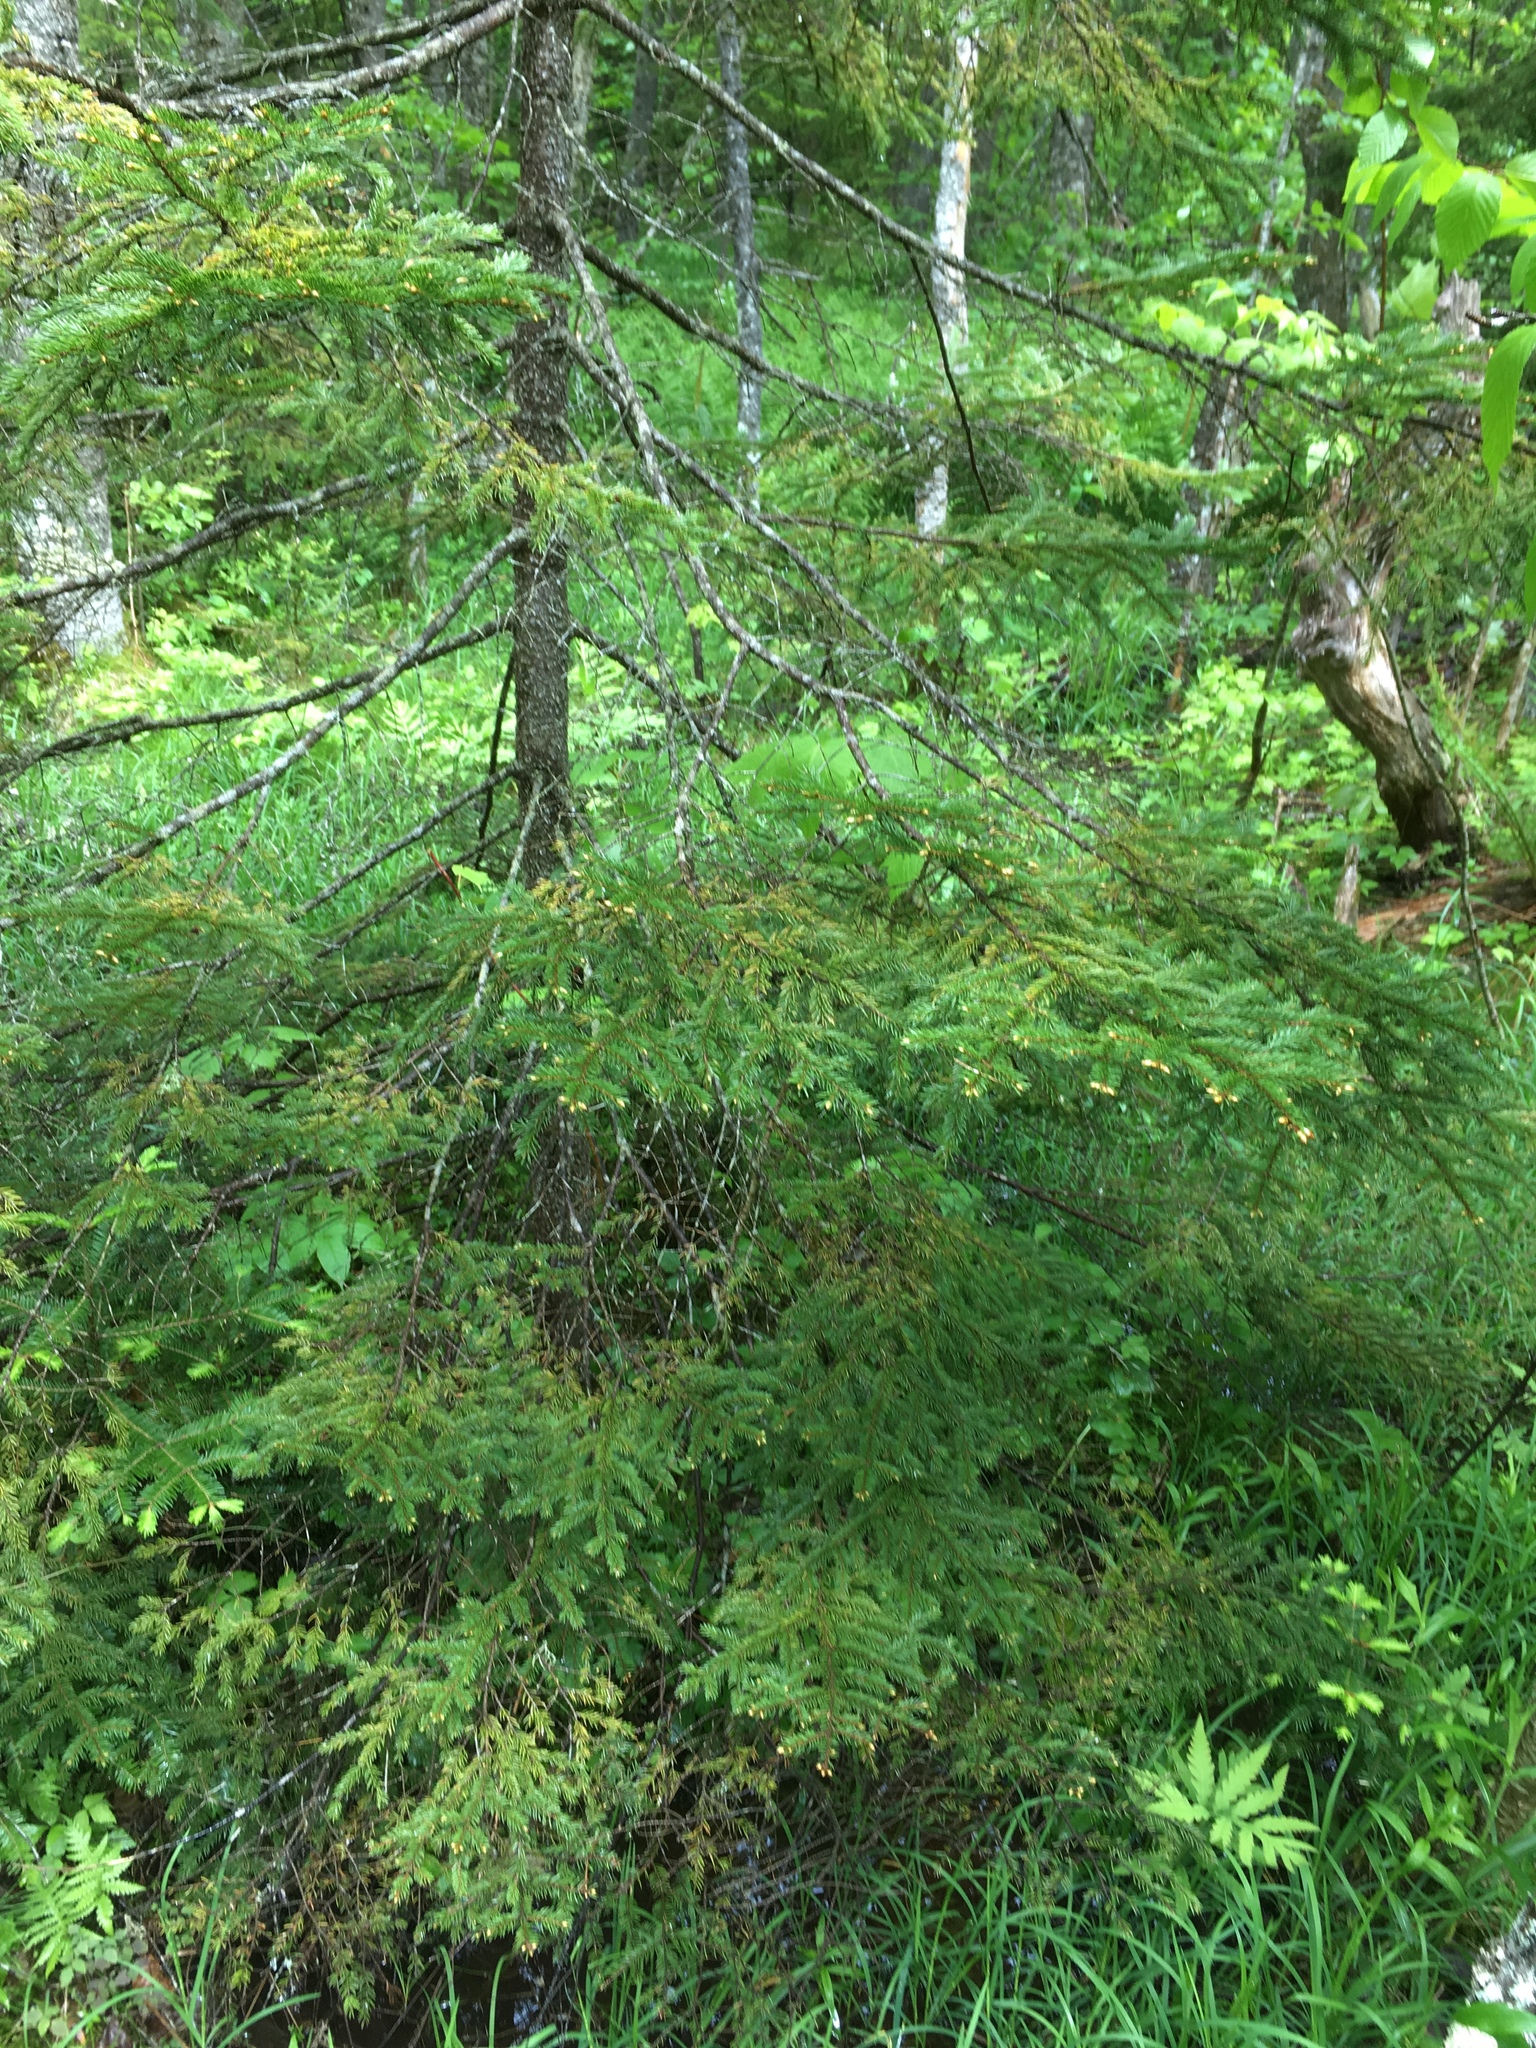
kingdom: Plantae
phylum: Tracheophyta
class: Pinopsida
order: Pinales
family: Pinaceae
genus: Picea
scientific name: Picea rubens
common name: Red spruce
